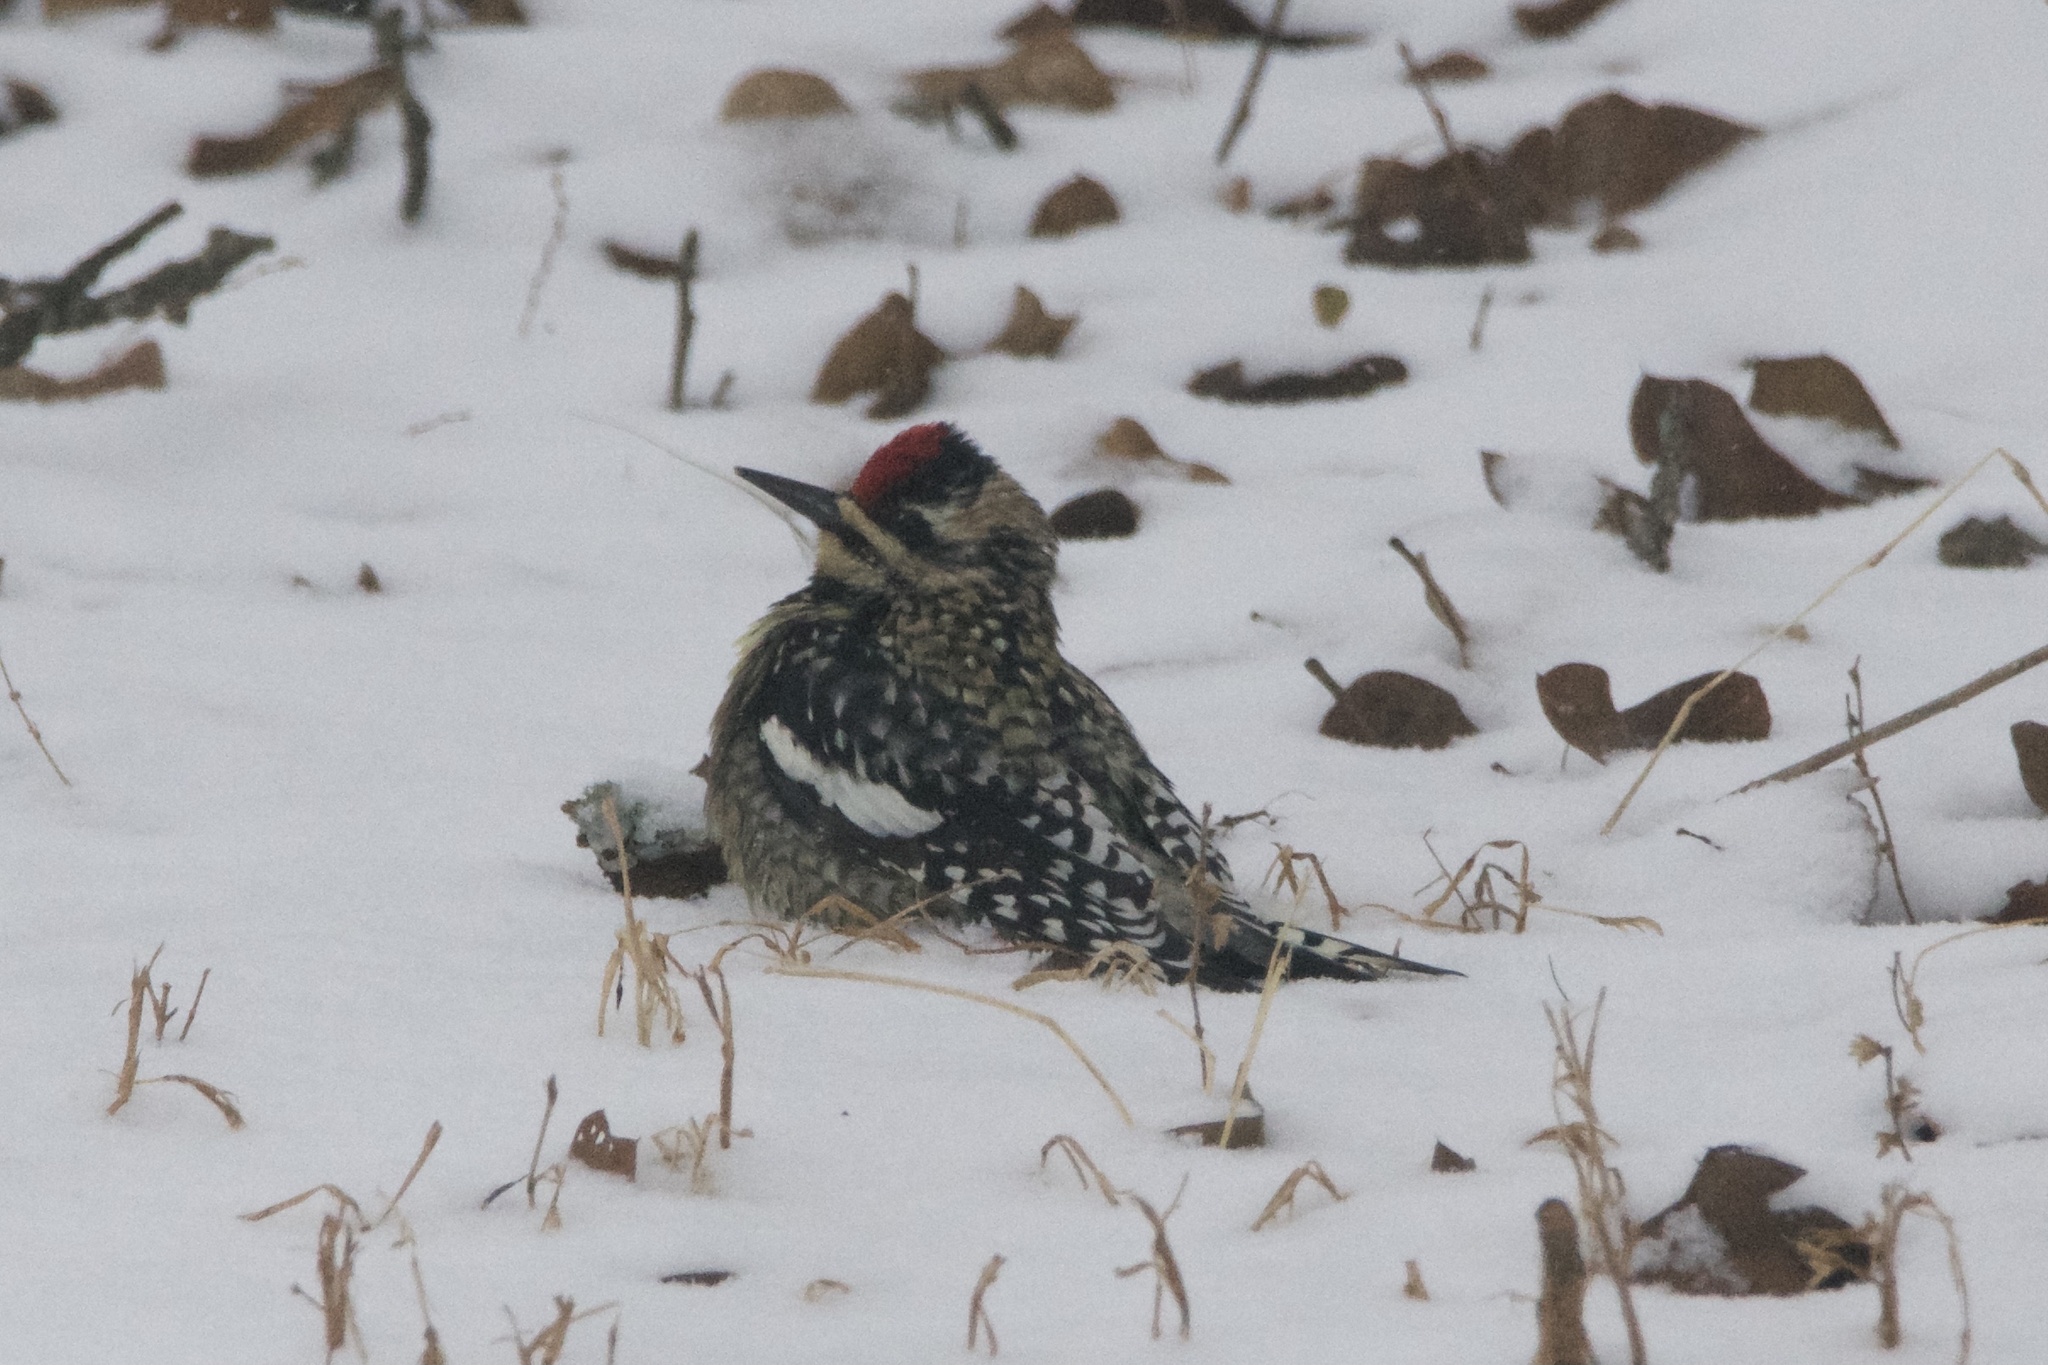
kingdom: Animalia
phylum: Chordata
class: Aves
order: Piciformes
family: Picidae
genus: Sphyrapicus
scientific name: Sphyrapicus varius
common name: Yellow-bellied sapsucker
